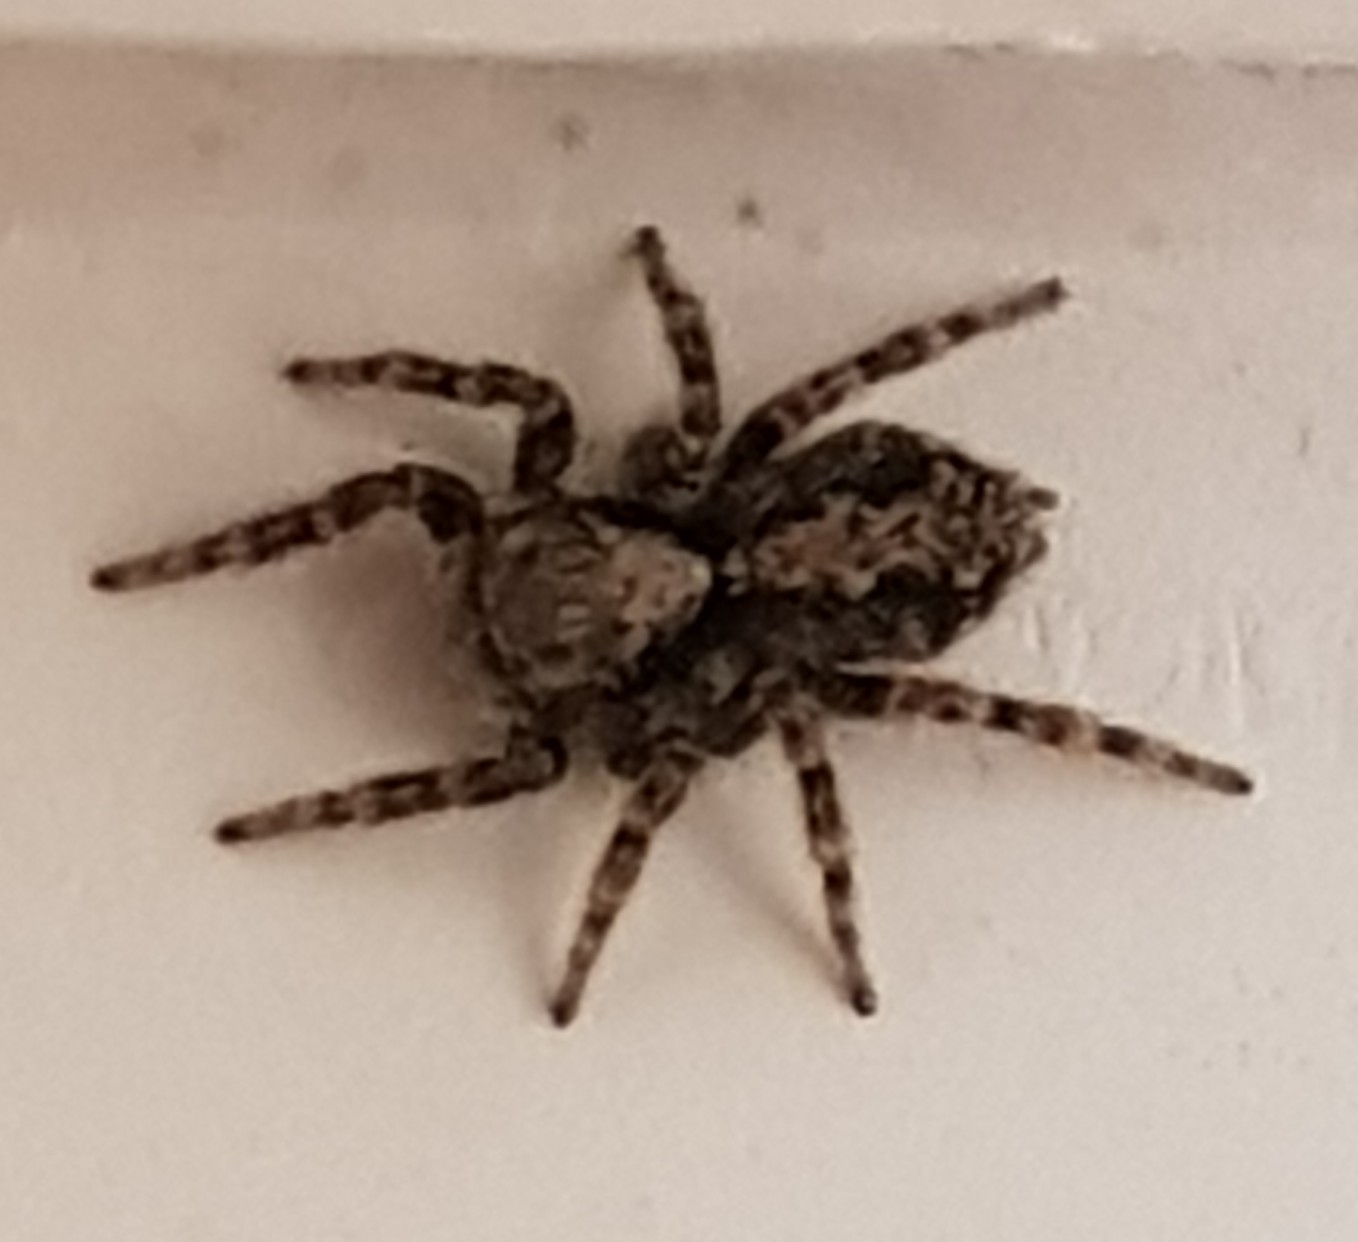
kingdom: Animalia
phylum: Arthropoda
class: Arachnida
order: Araneae
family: Salticidae
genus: Pseudeuophrys
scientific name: Pseudeuophrys lanigera
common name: Jumping spider
